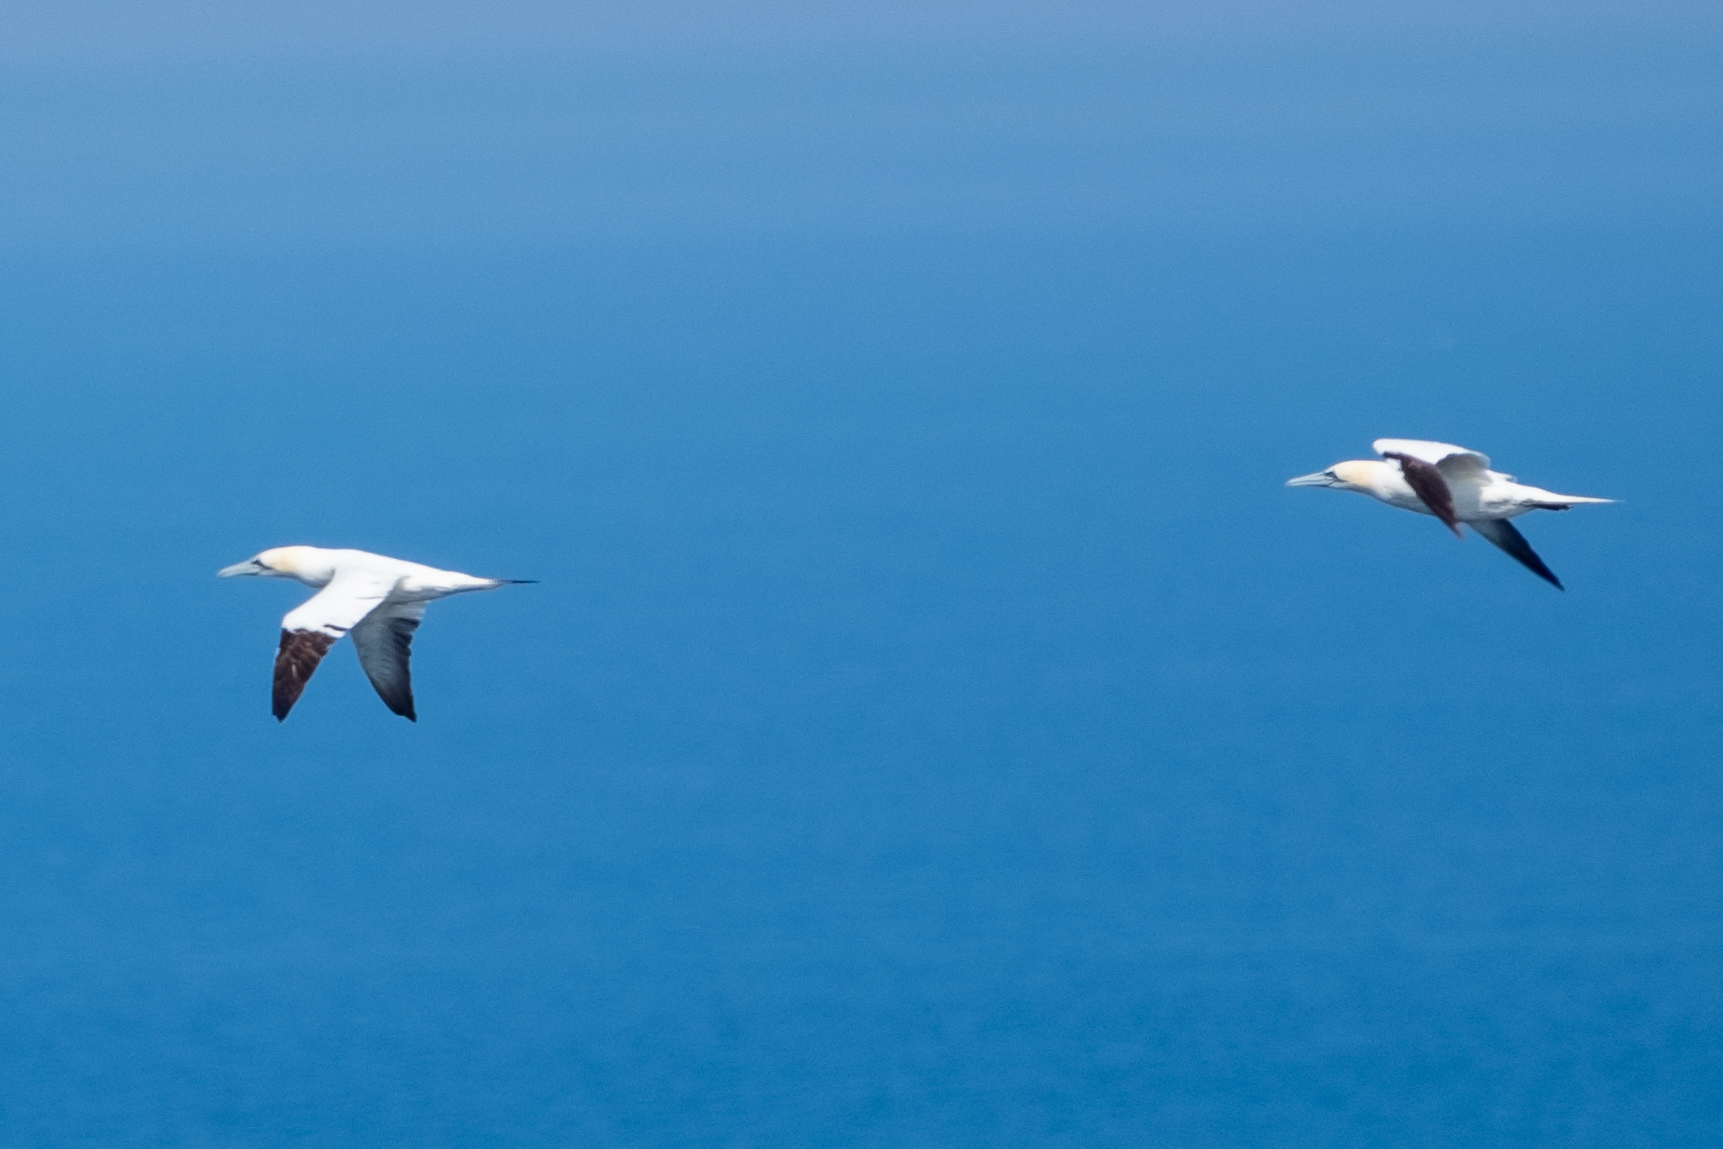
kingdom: Animalia
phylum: Chordata
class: Aves
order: Suliformes
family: Sulidae
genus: Morus
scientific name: Morus bassanus
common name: Northern gannet
